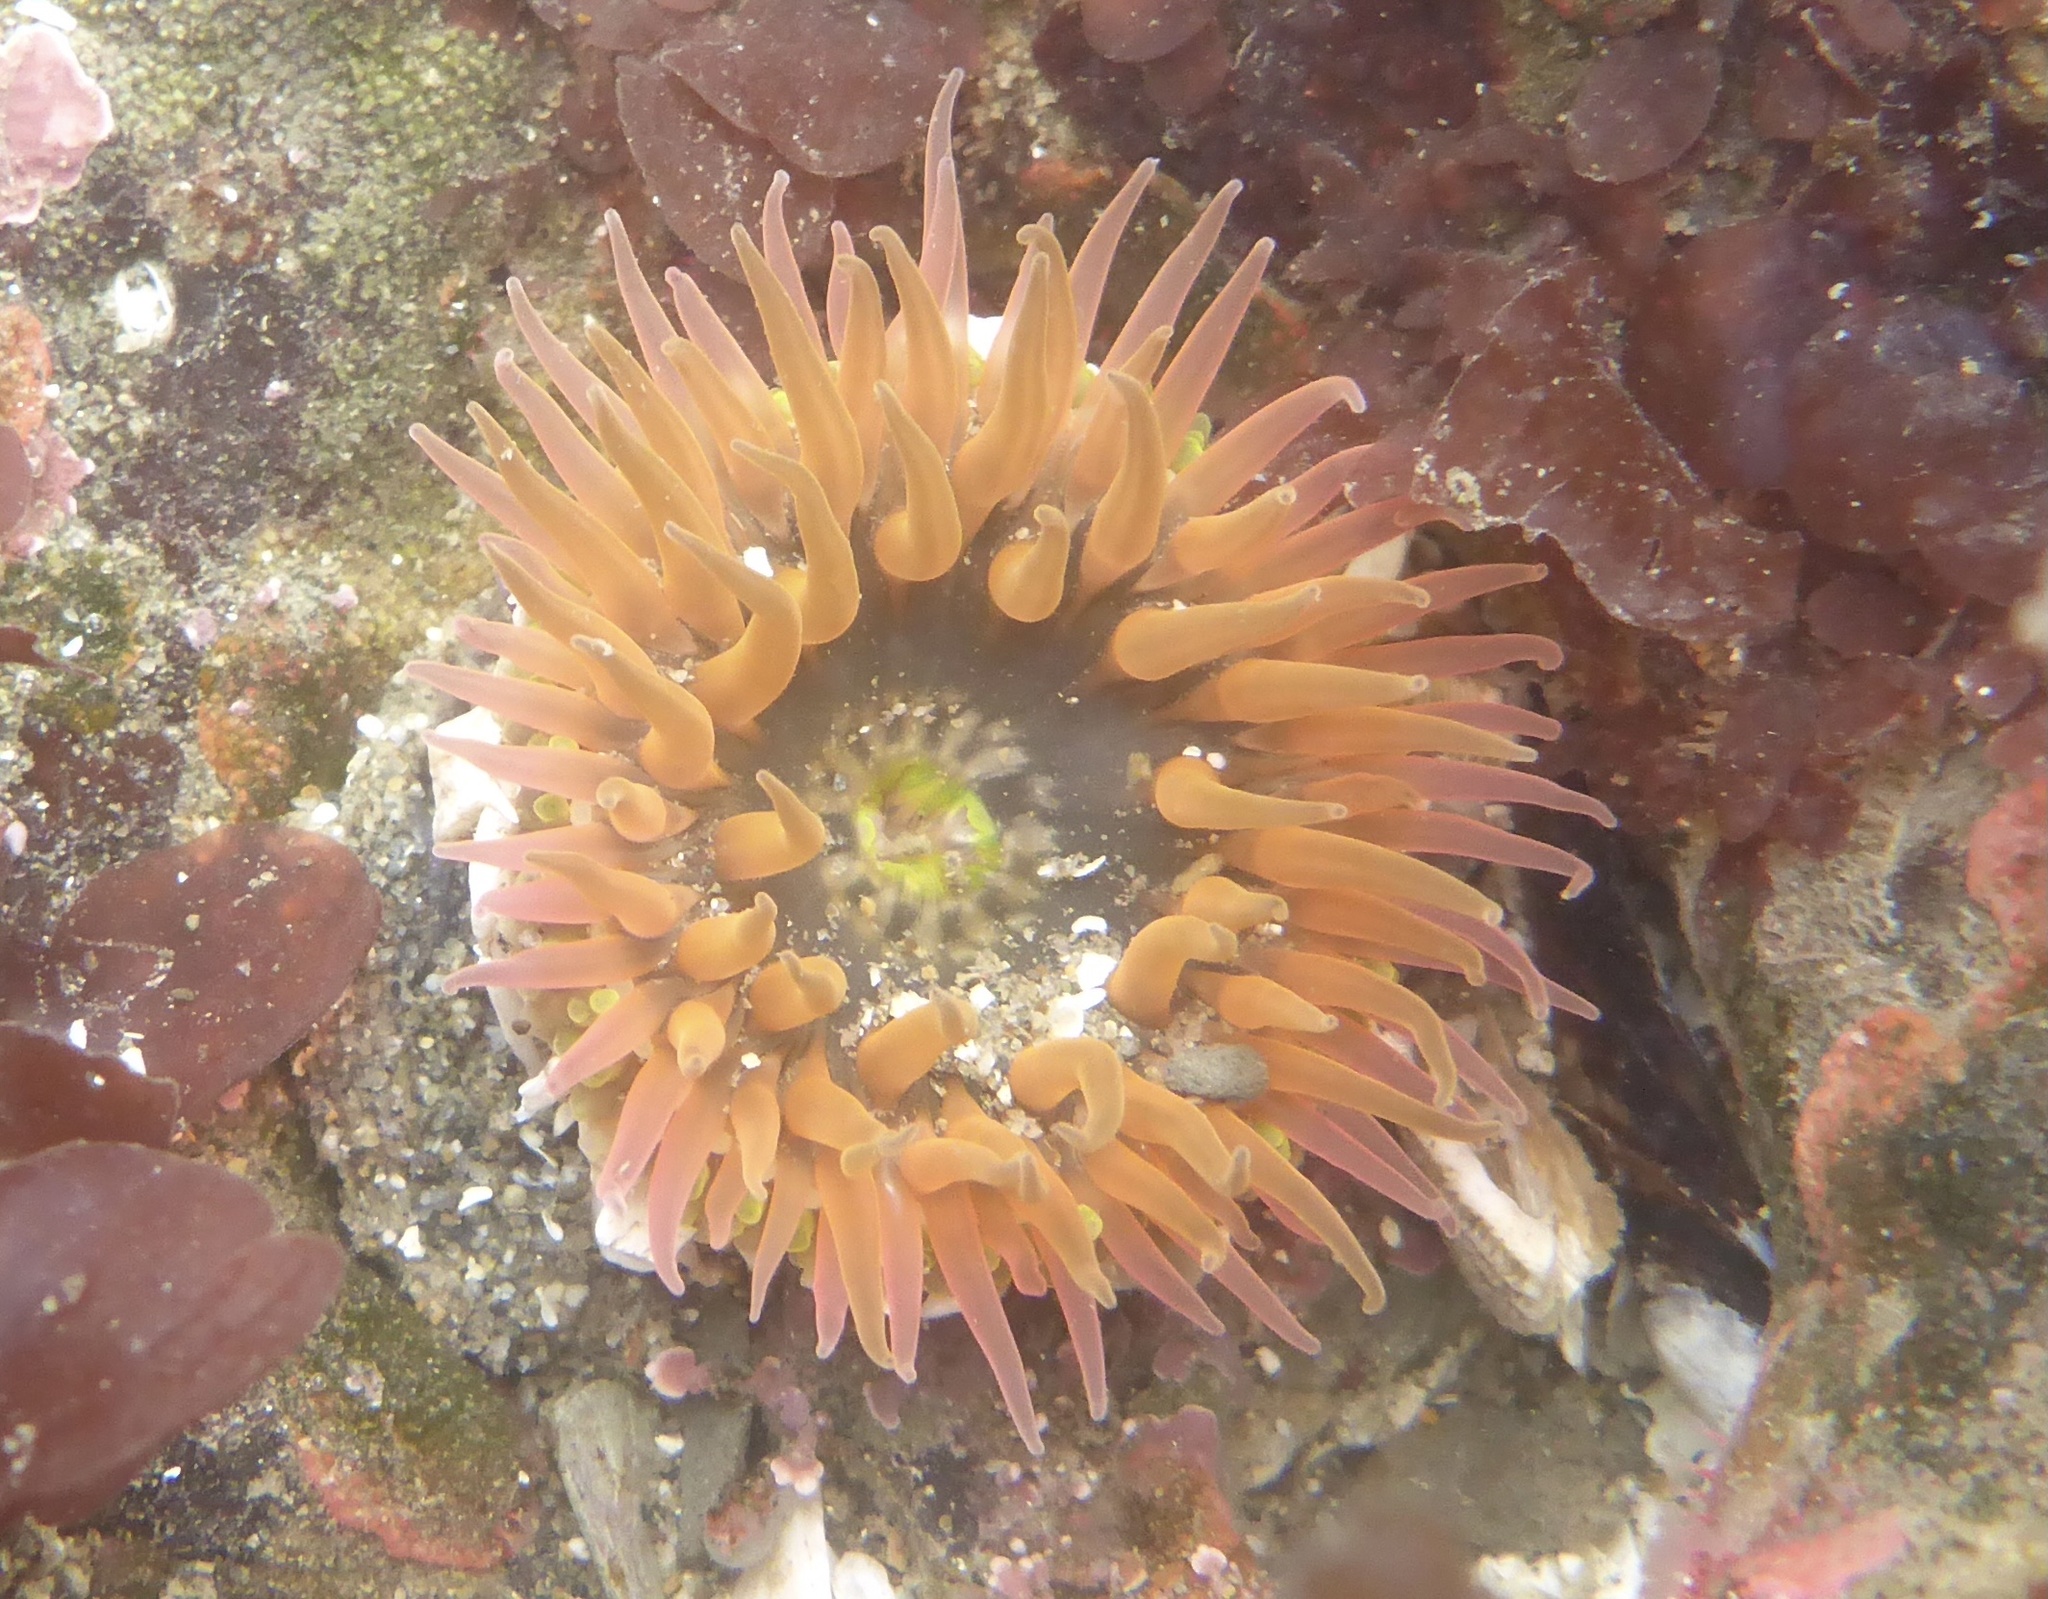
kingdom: Animalia
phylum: Cnidaria
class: Anthozoa
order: Actiniaria
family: Actiniidae
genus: Anthopleura
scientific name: Anthopleura artemisia
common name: Buried sea anemone
